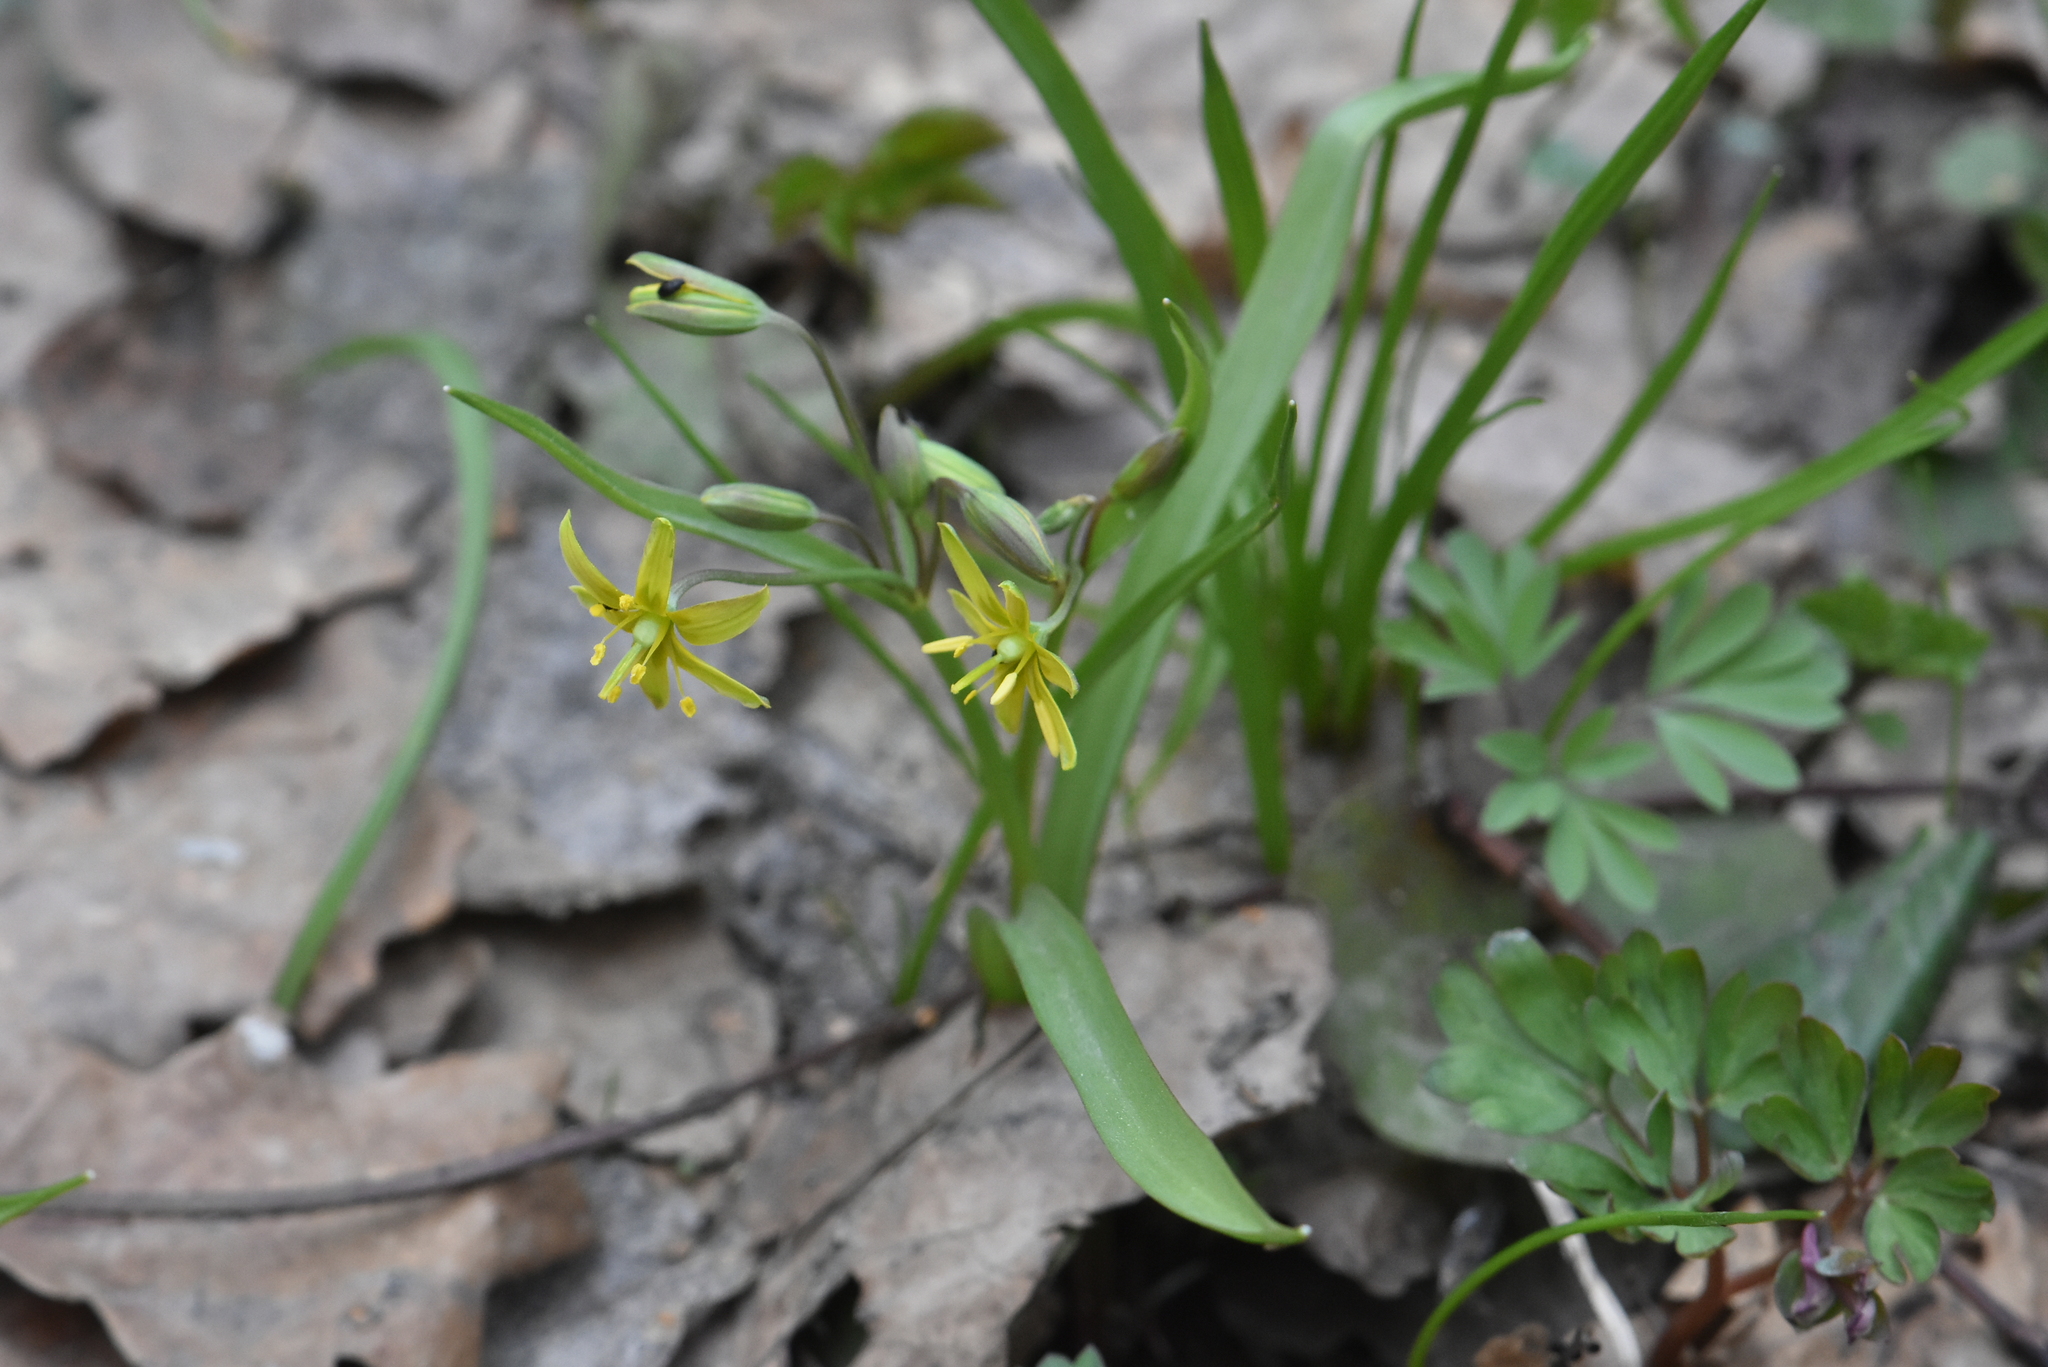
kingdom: Plantae
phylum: Tracheophyta
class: Liliopsida
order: Liliales
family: Liliaceae
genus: Gagea
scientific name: Gagea lutea
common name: Yellow star-of-bethlehem
